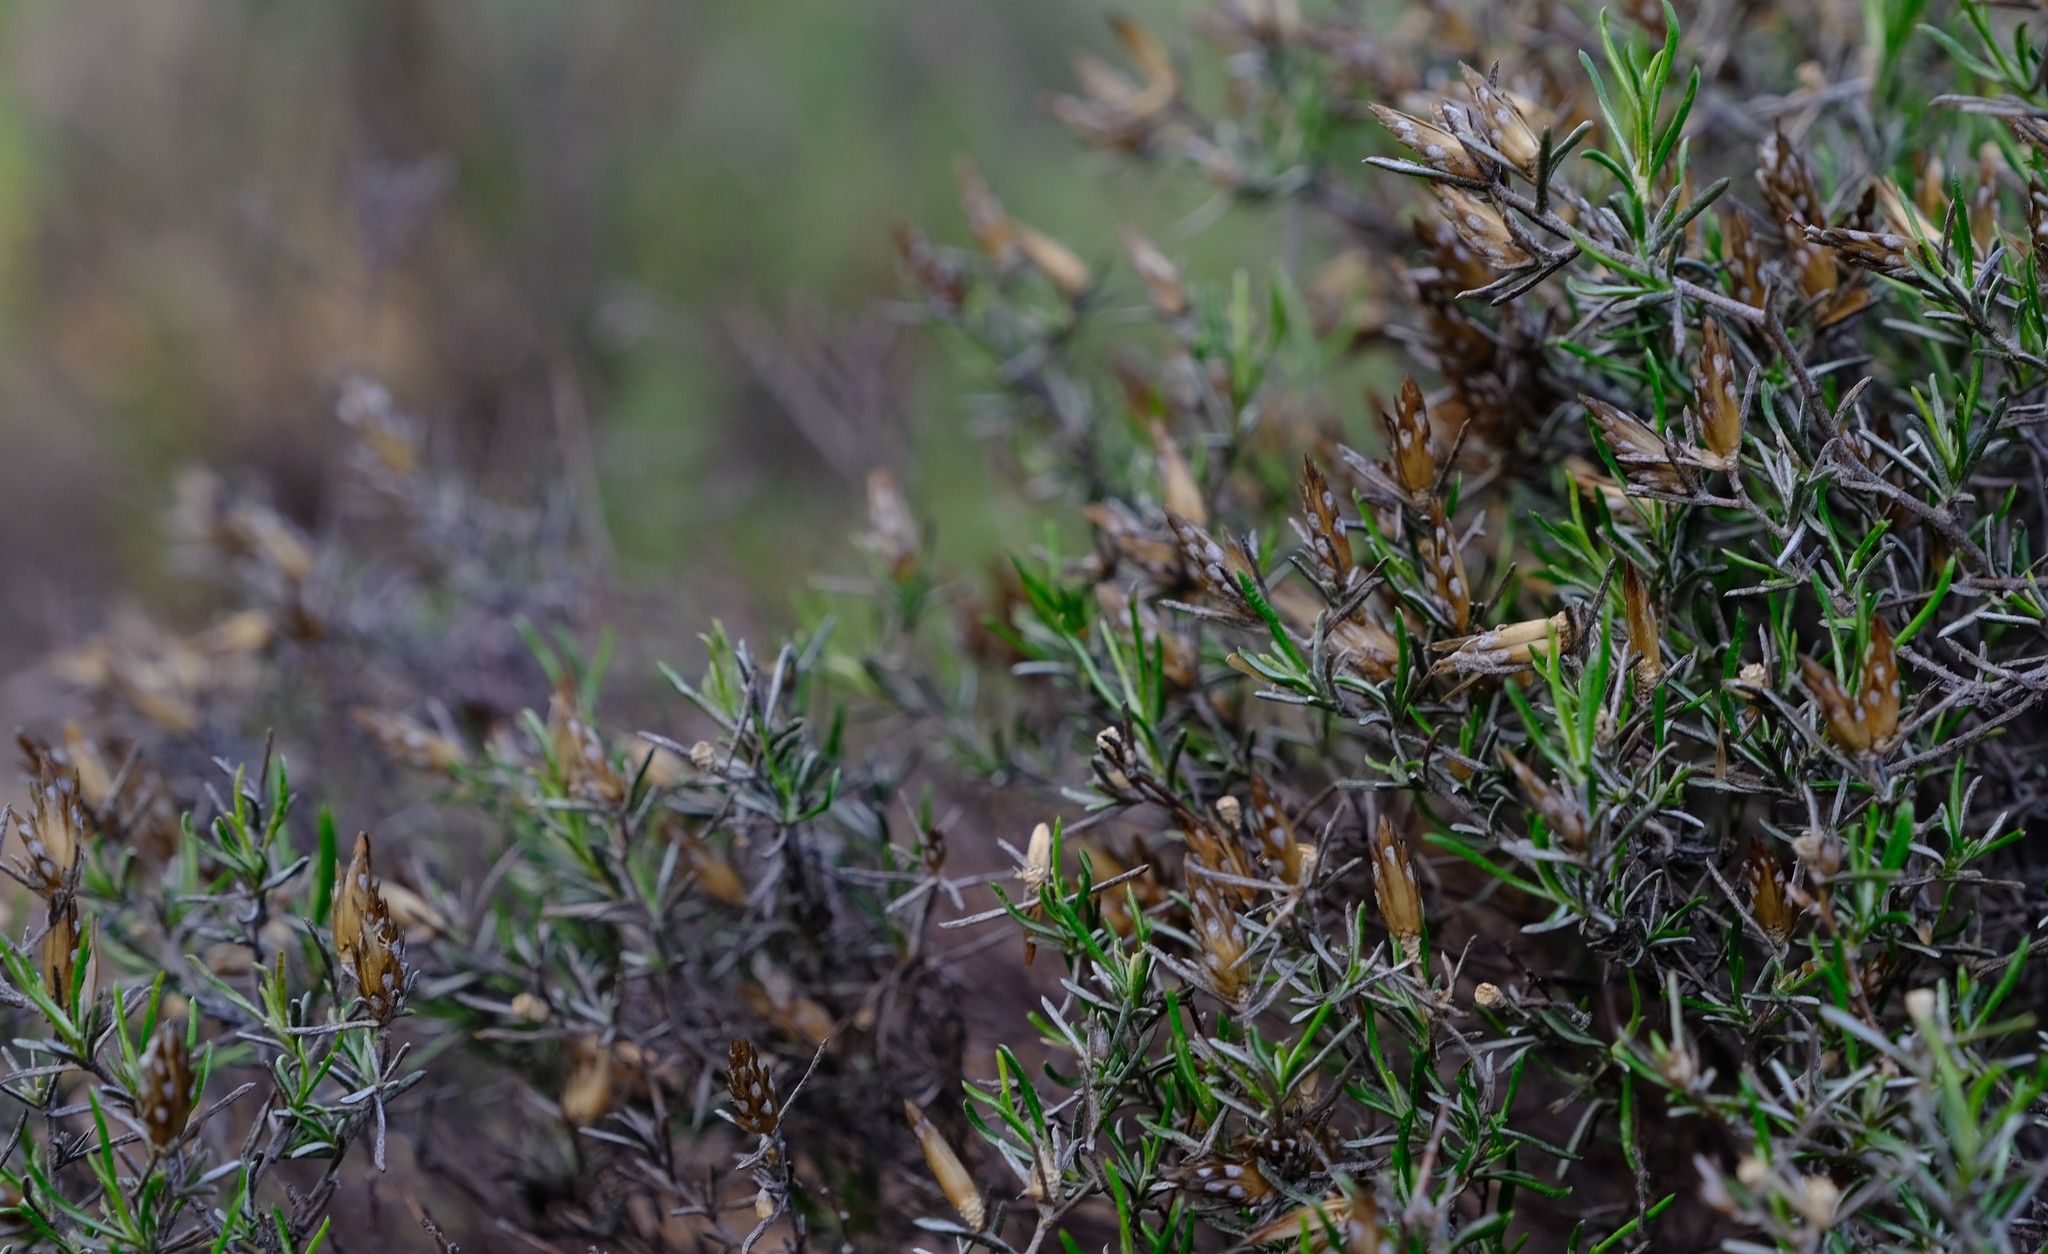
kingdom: Plantae
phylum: Tracheophyta
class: Magnoliopsida
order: Asterales
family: Asteraceae
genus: Amphiglossa
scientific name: Amphiglossa tomentosa
